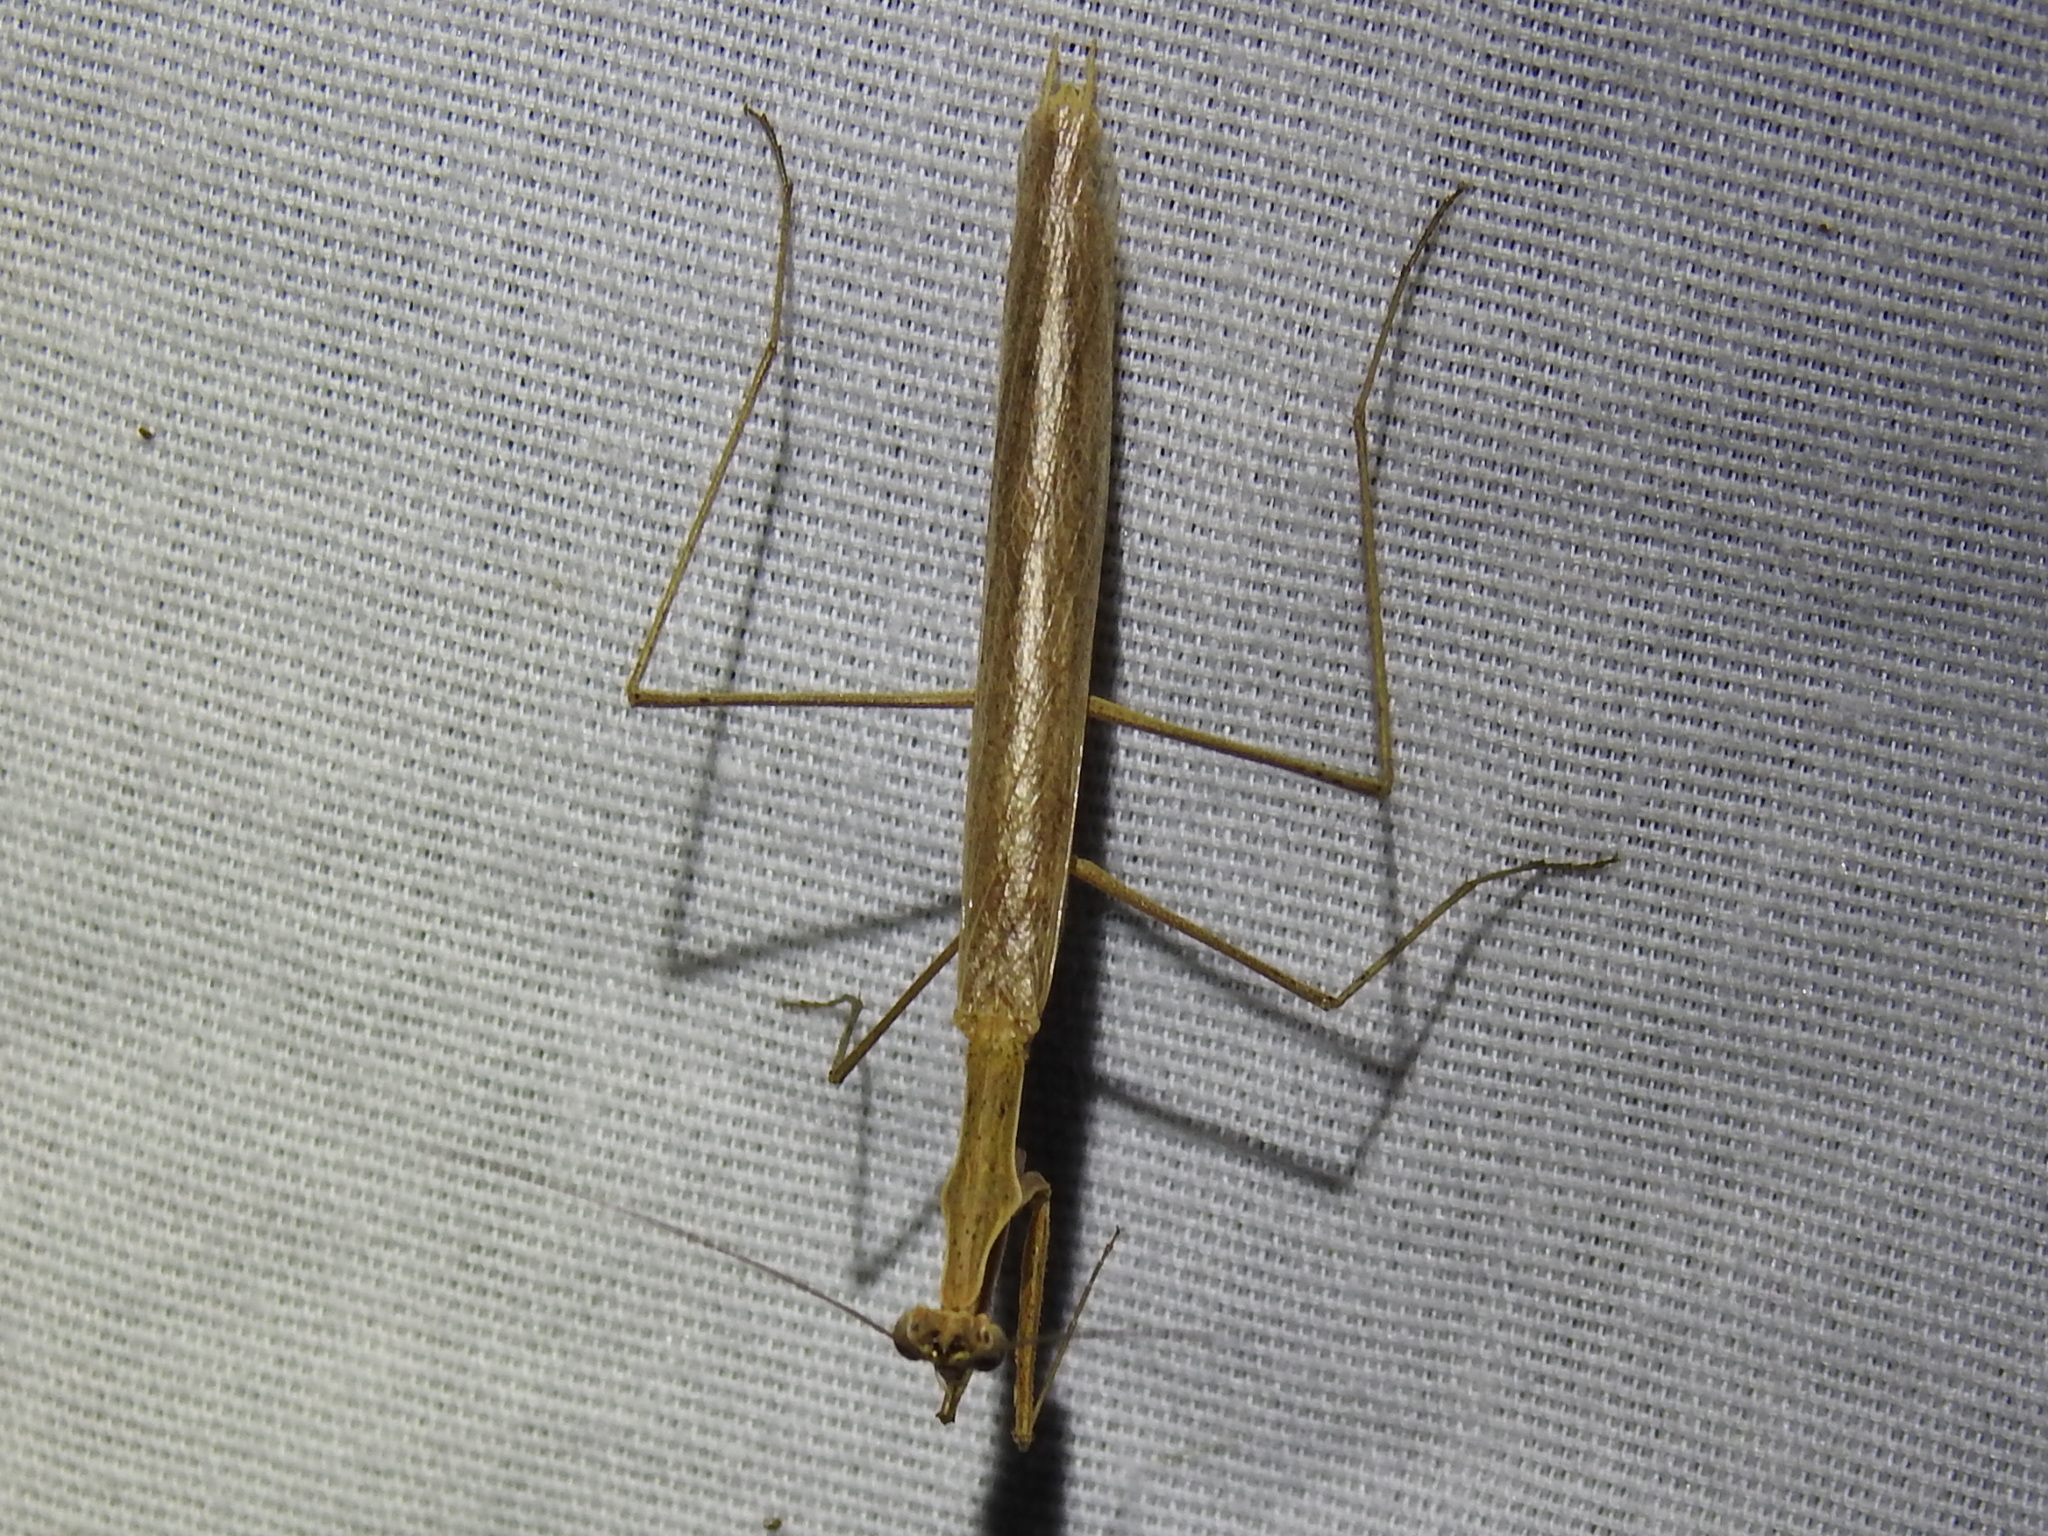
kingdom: Animalia
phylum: Arthropoda
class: Insecta
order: Mantodea
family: Thespidae
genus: Oligonicella
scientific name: Oligonicella scudderi
